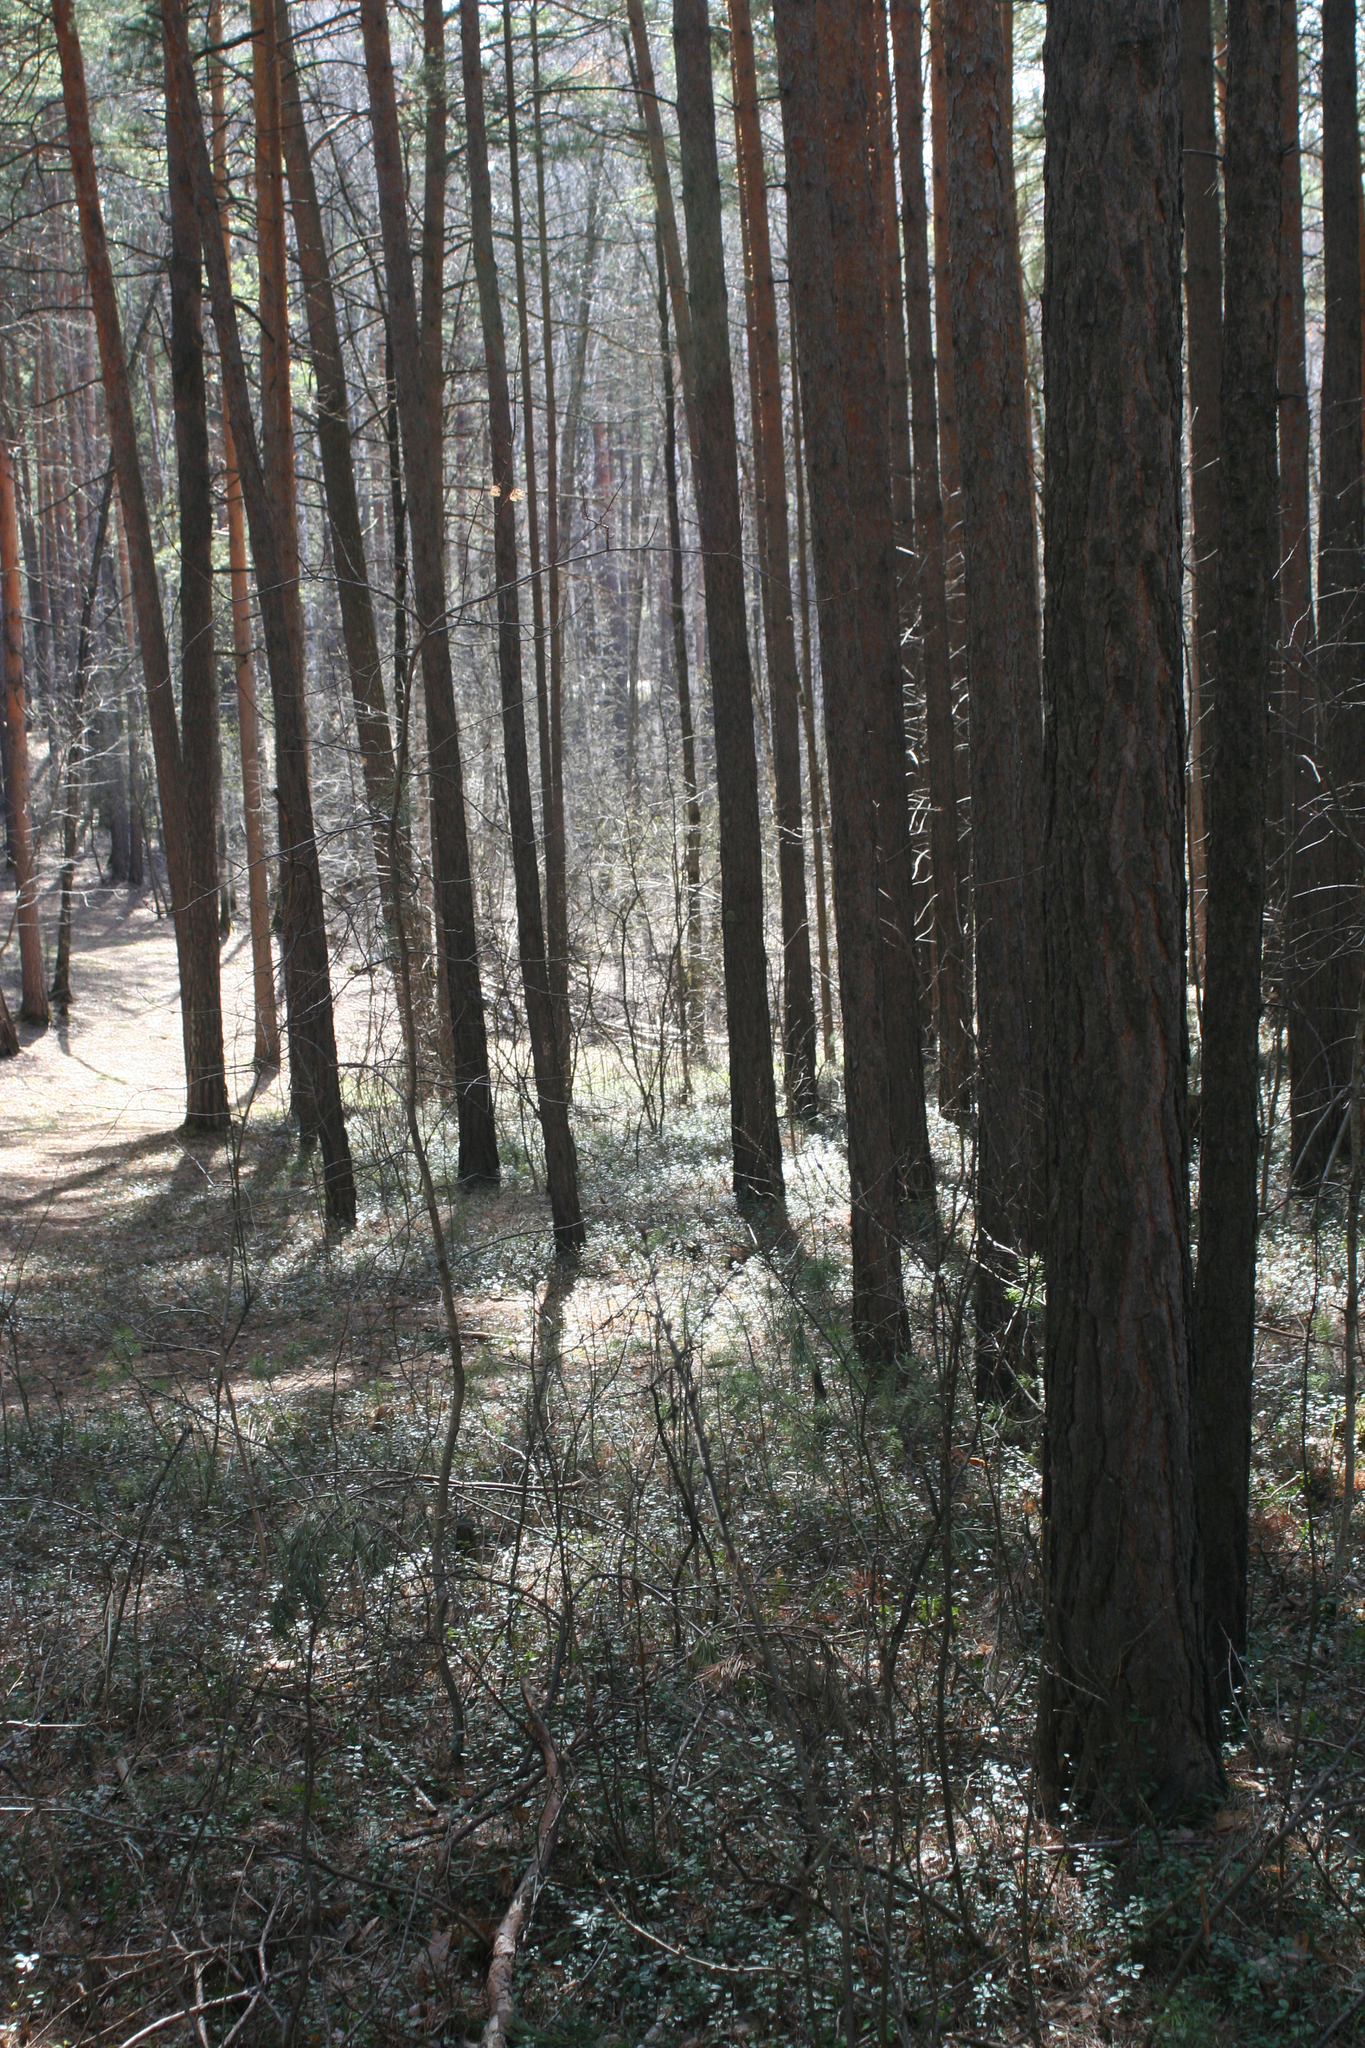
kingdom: Plantae
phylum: Tracheophyta
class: Pinopsida
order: Pinales
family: Pinaceae
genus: Pinus
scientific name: Pinus sylvestris
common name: Scots pine
